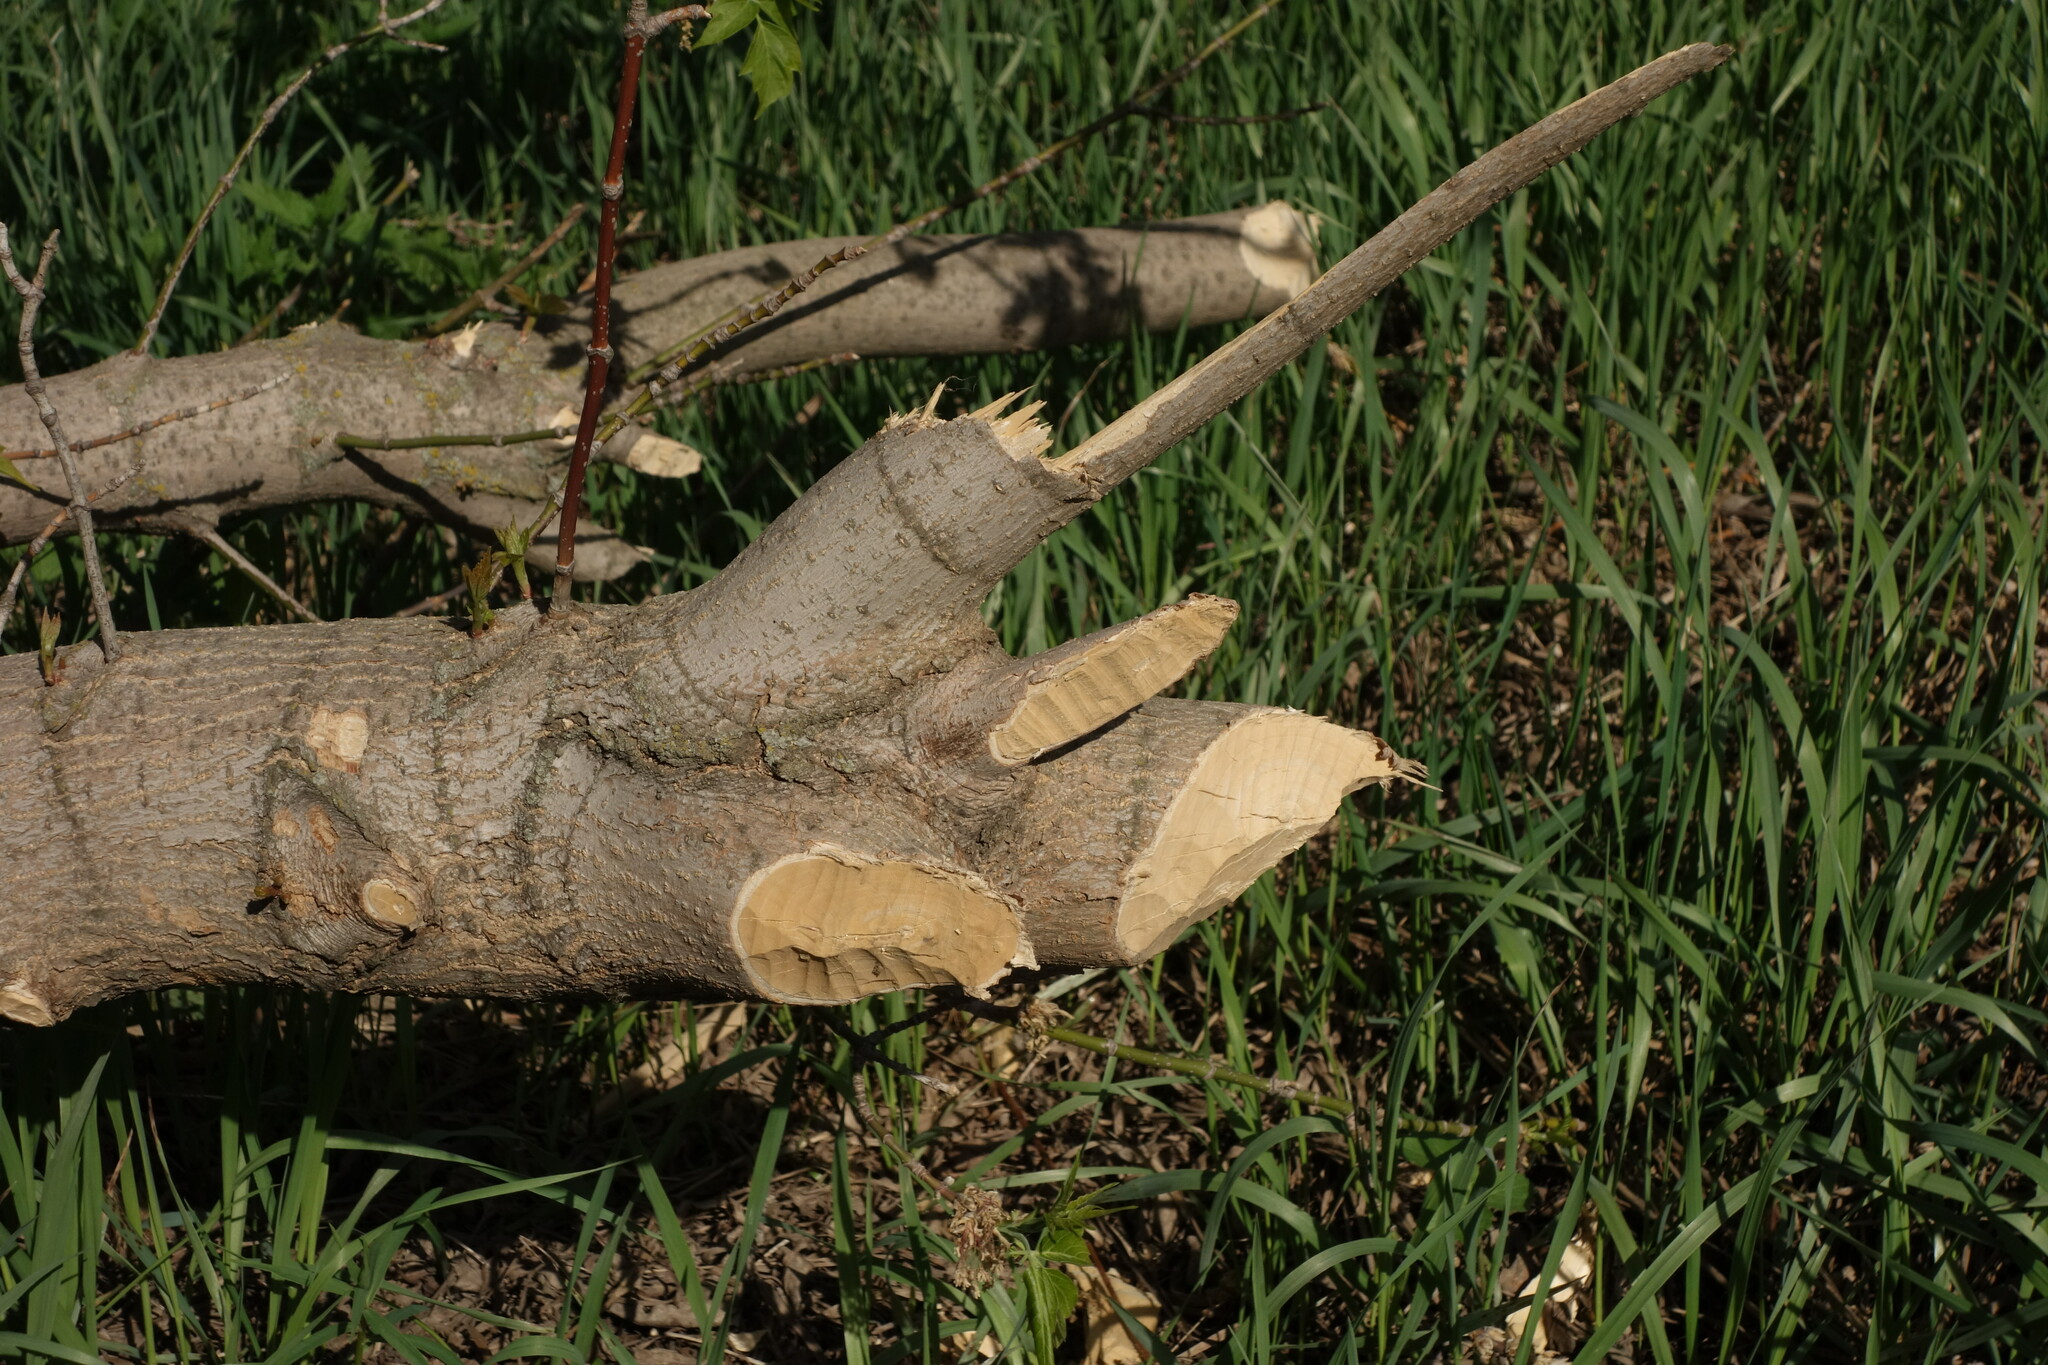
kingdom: Animalia
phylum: Chordata
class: Mammalia
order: Rodentia
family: Castoridae
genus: Castor
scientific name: Castor fiber
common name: Eurasian beaver
